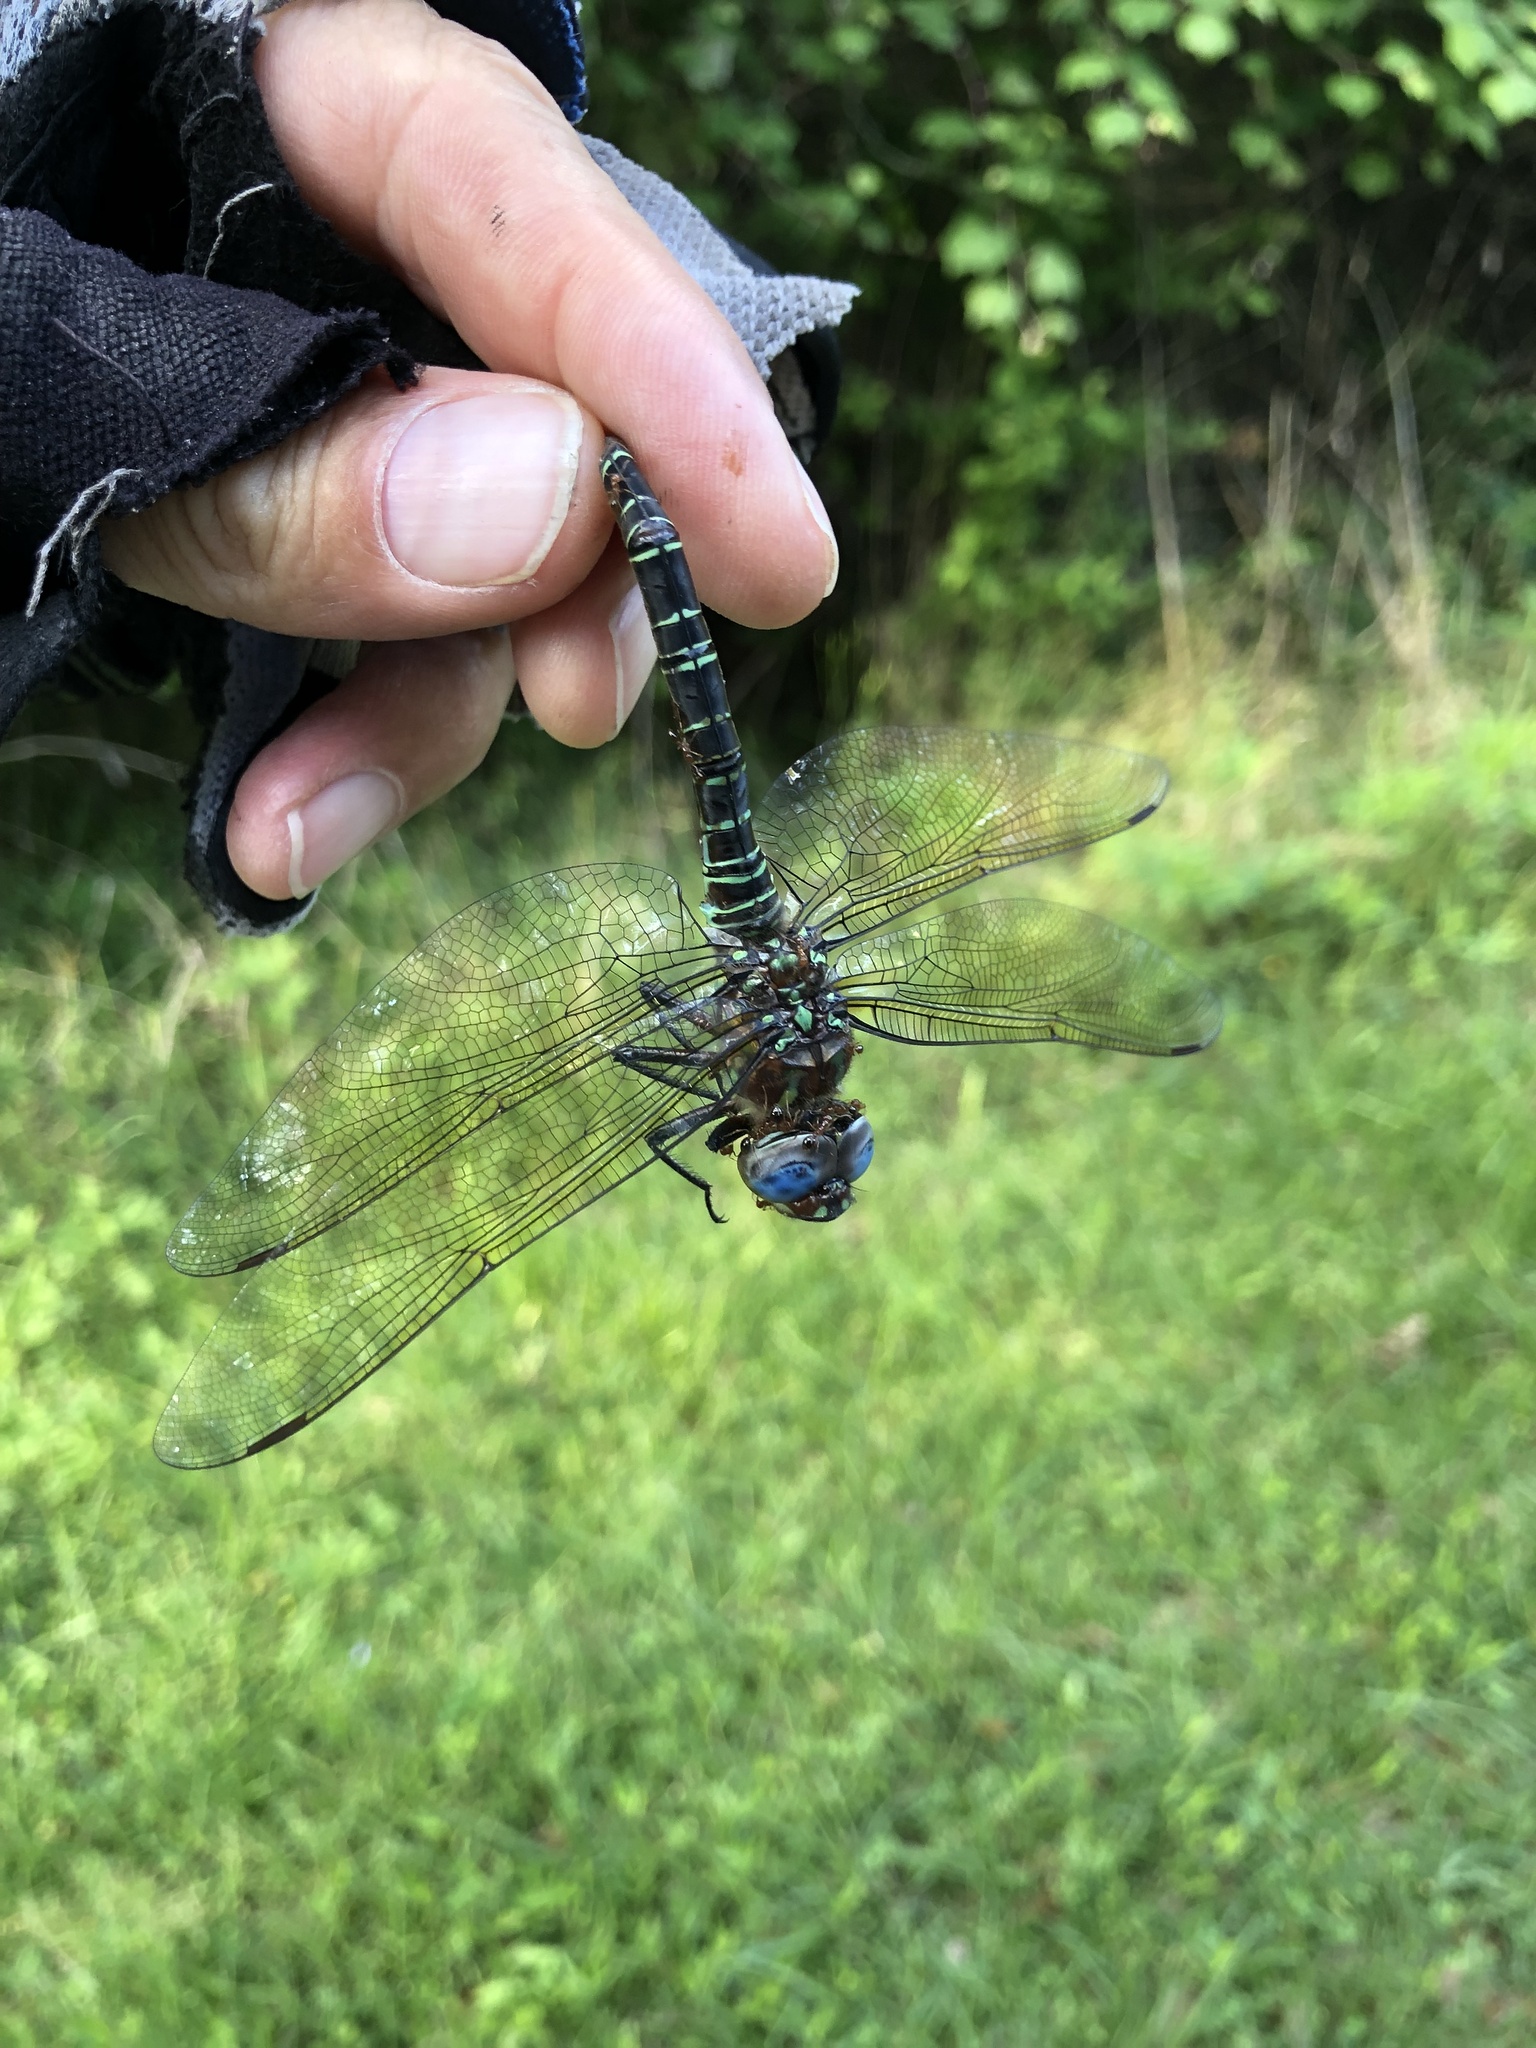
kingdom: Animalia
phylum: Arthropoda
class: Insecta
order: Odonata
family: Aeshnidae
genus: Epiaeschna
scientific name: Epiaeschna heros
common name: Swamp darner
